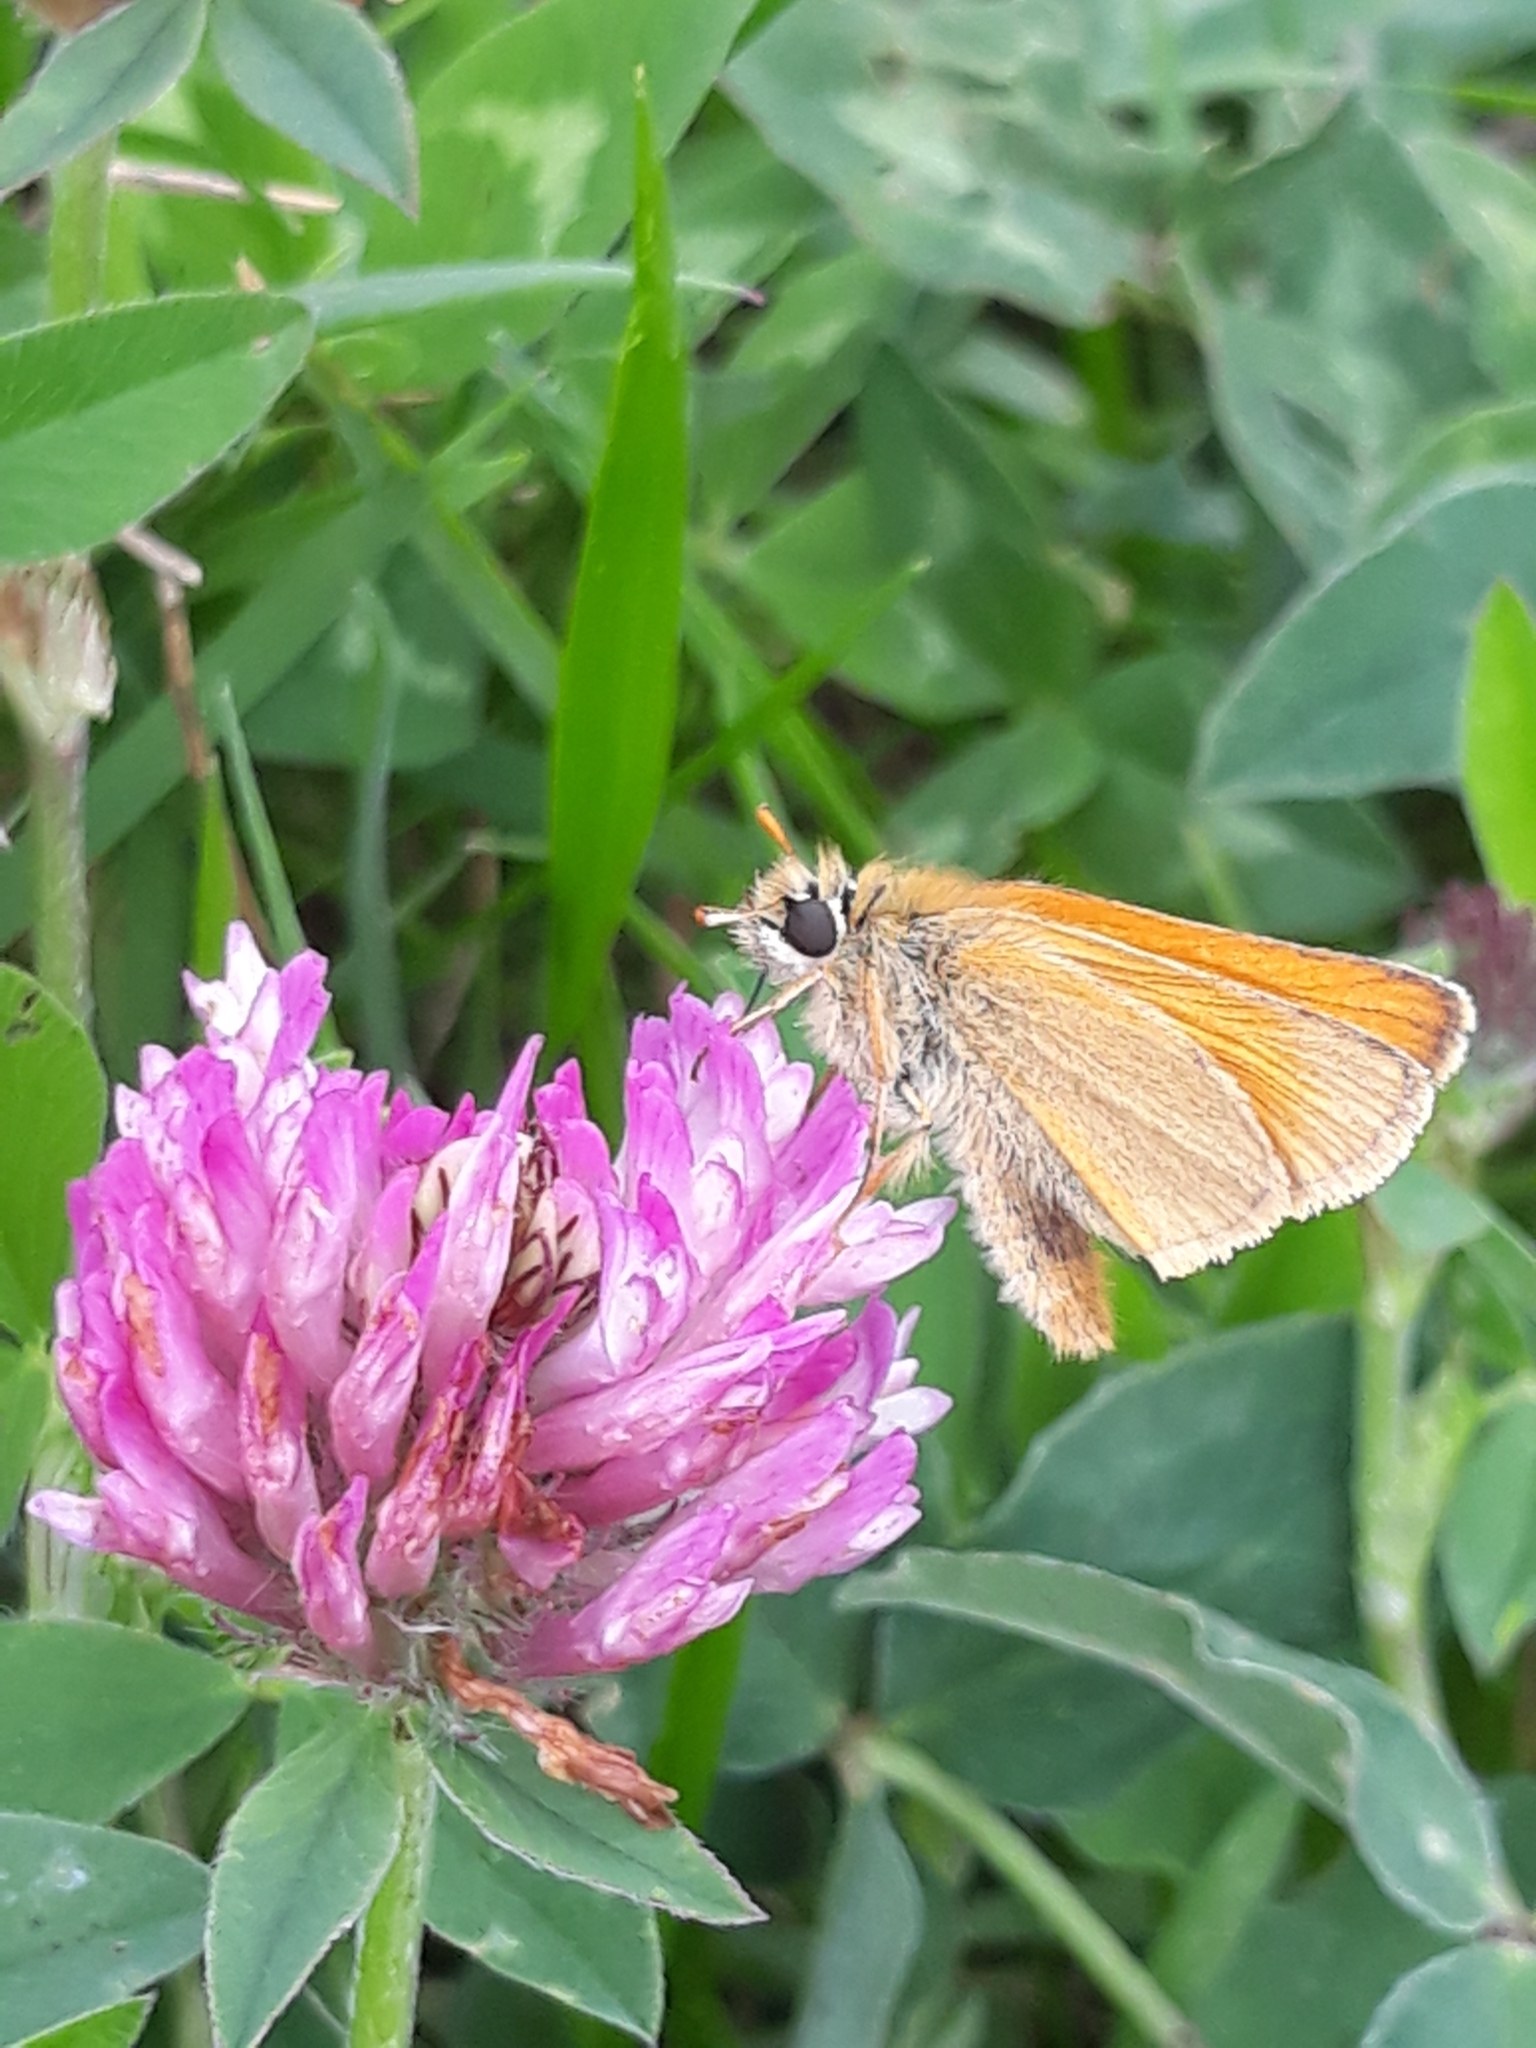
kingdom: Animalia
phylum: Arthropoda
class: Insecta
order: Lepidoptera
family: Hesperiidae
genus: Thymelicus
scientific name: Thymelicus sylvestris
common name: Small skipper
